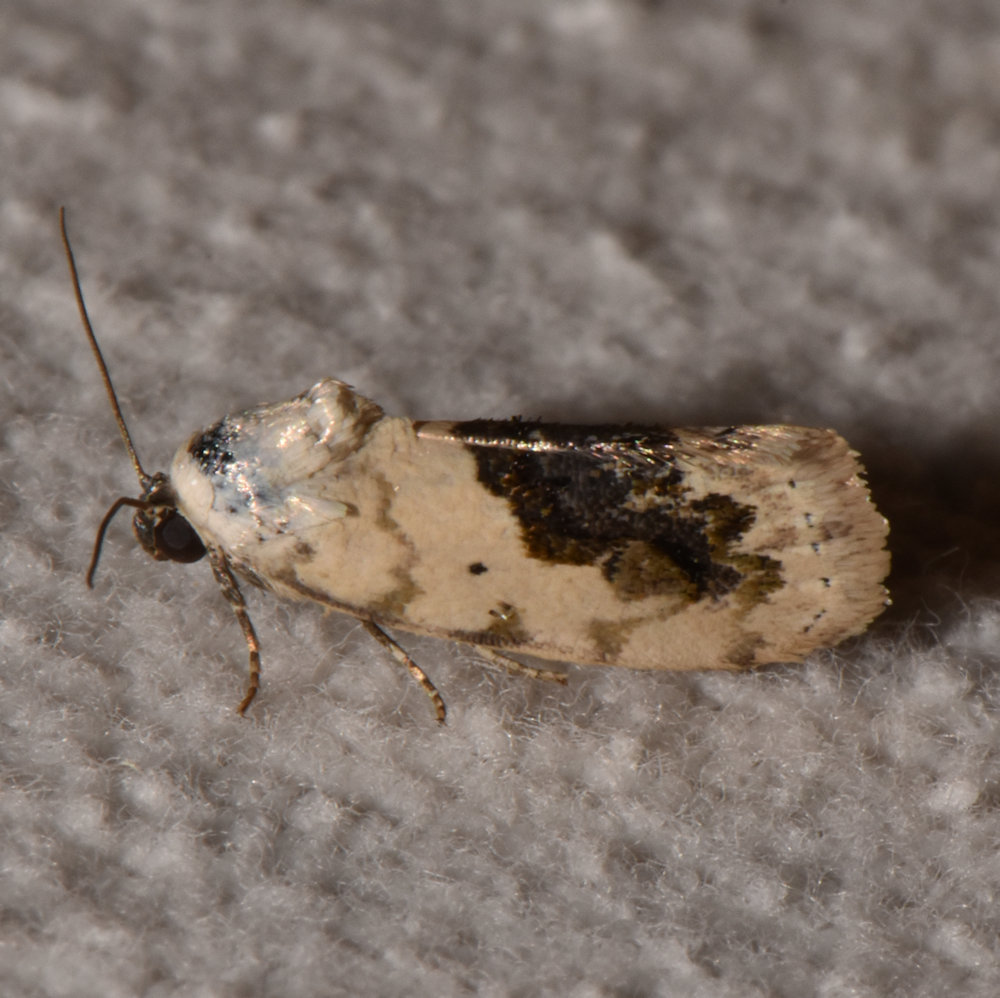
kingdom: Animalia
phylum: Arthropoda
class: Insecta
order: Lepidoptera
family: Noctuidae
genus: Acontia
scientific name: Acontia erastrioides
